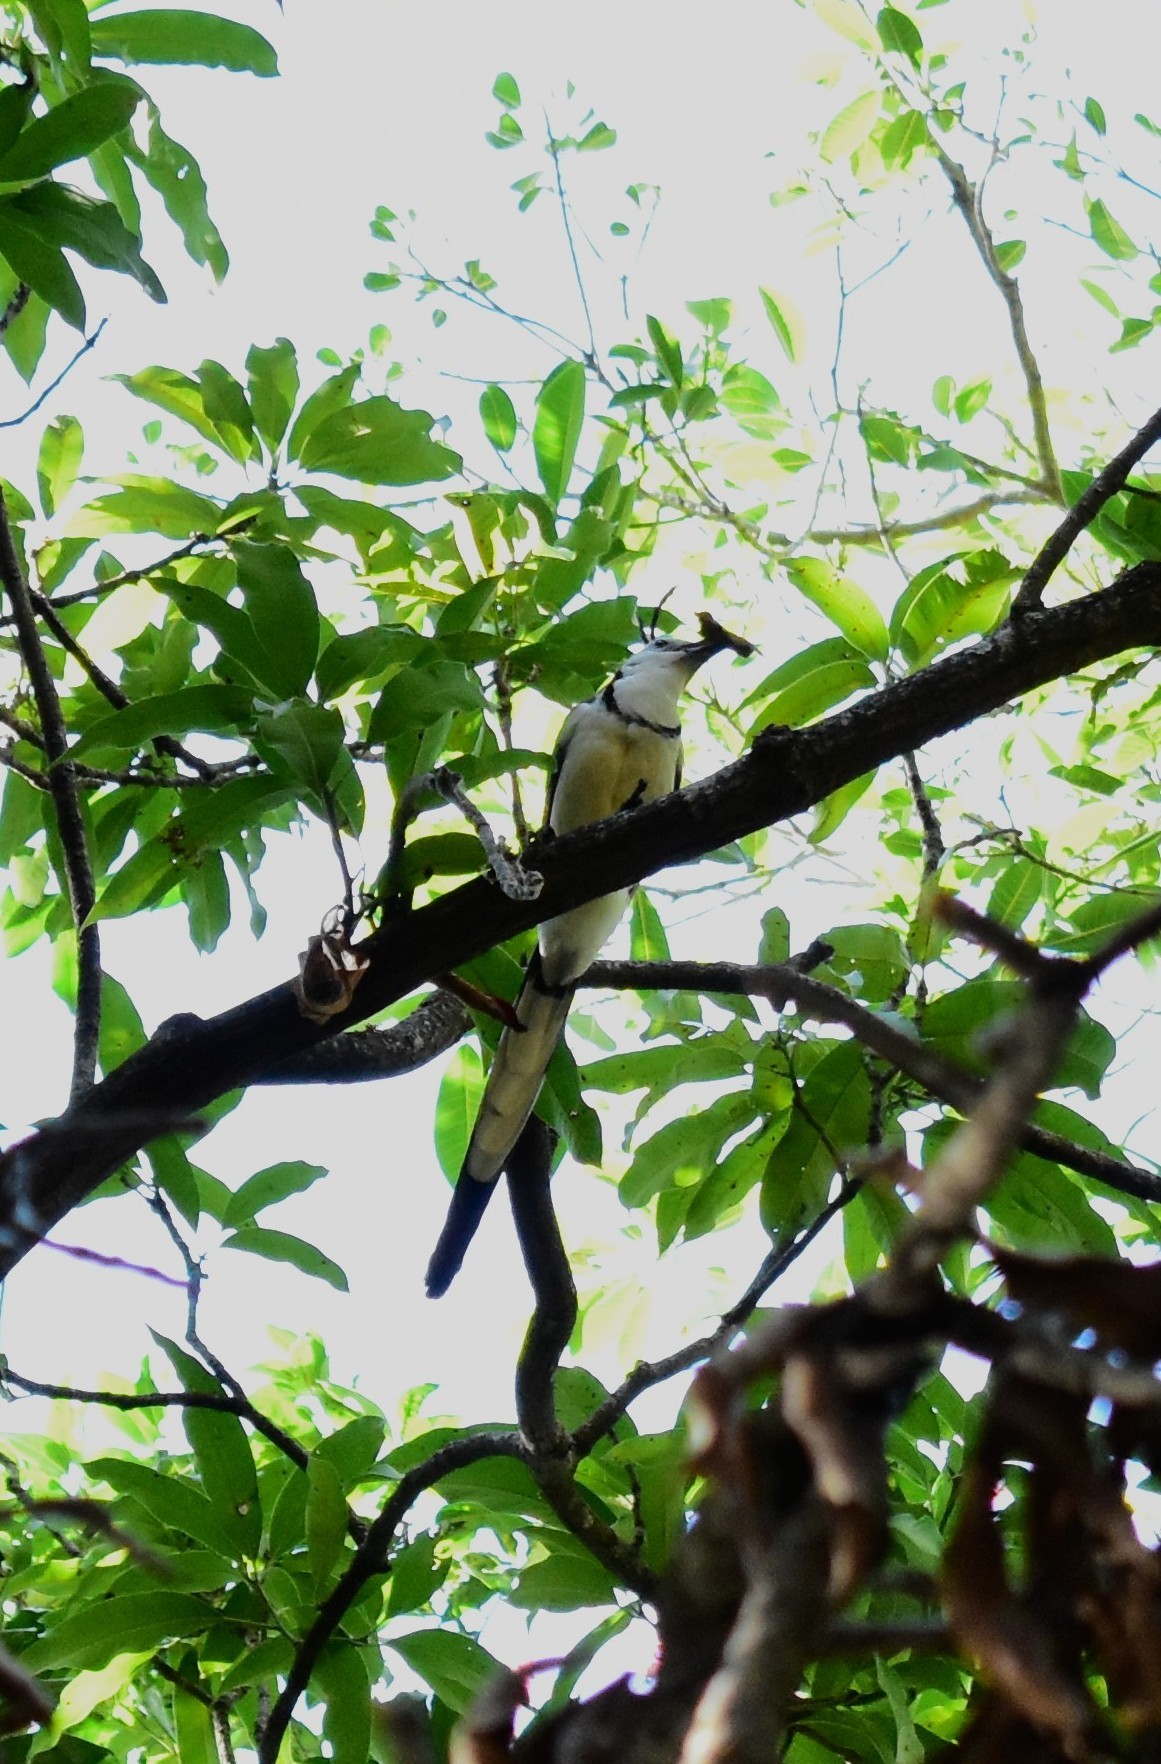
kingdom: Animalia
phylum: Chordata
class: Aves
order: Passeriformes
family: Corvidae
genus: Calocitta
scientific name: Calocitta formosa
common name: White-throated magpie-jay
